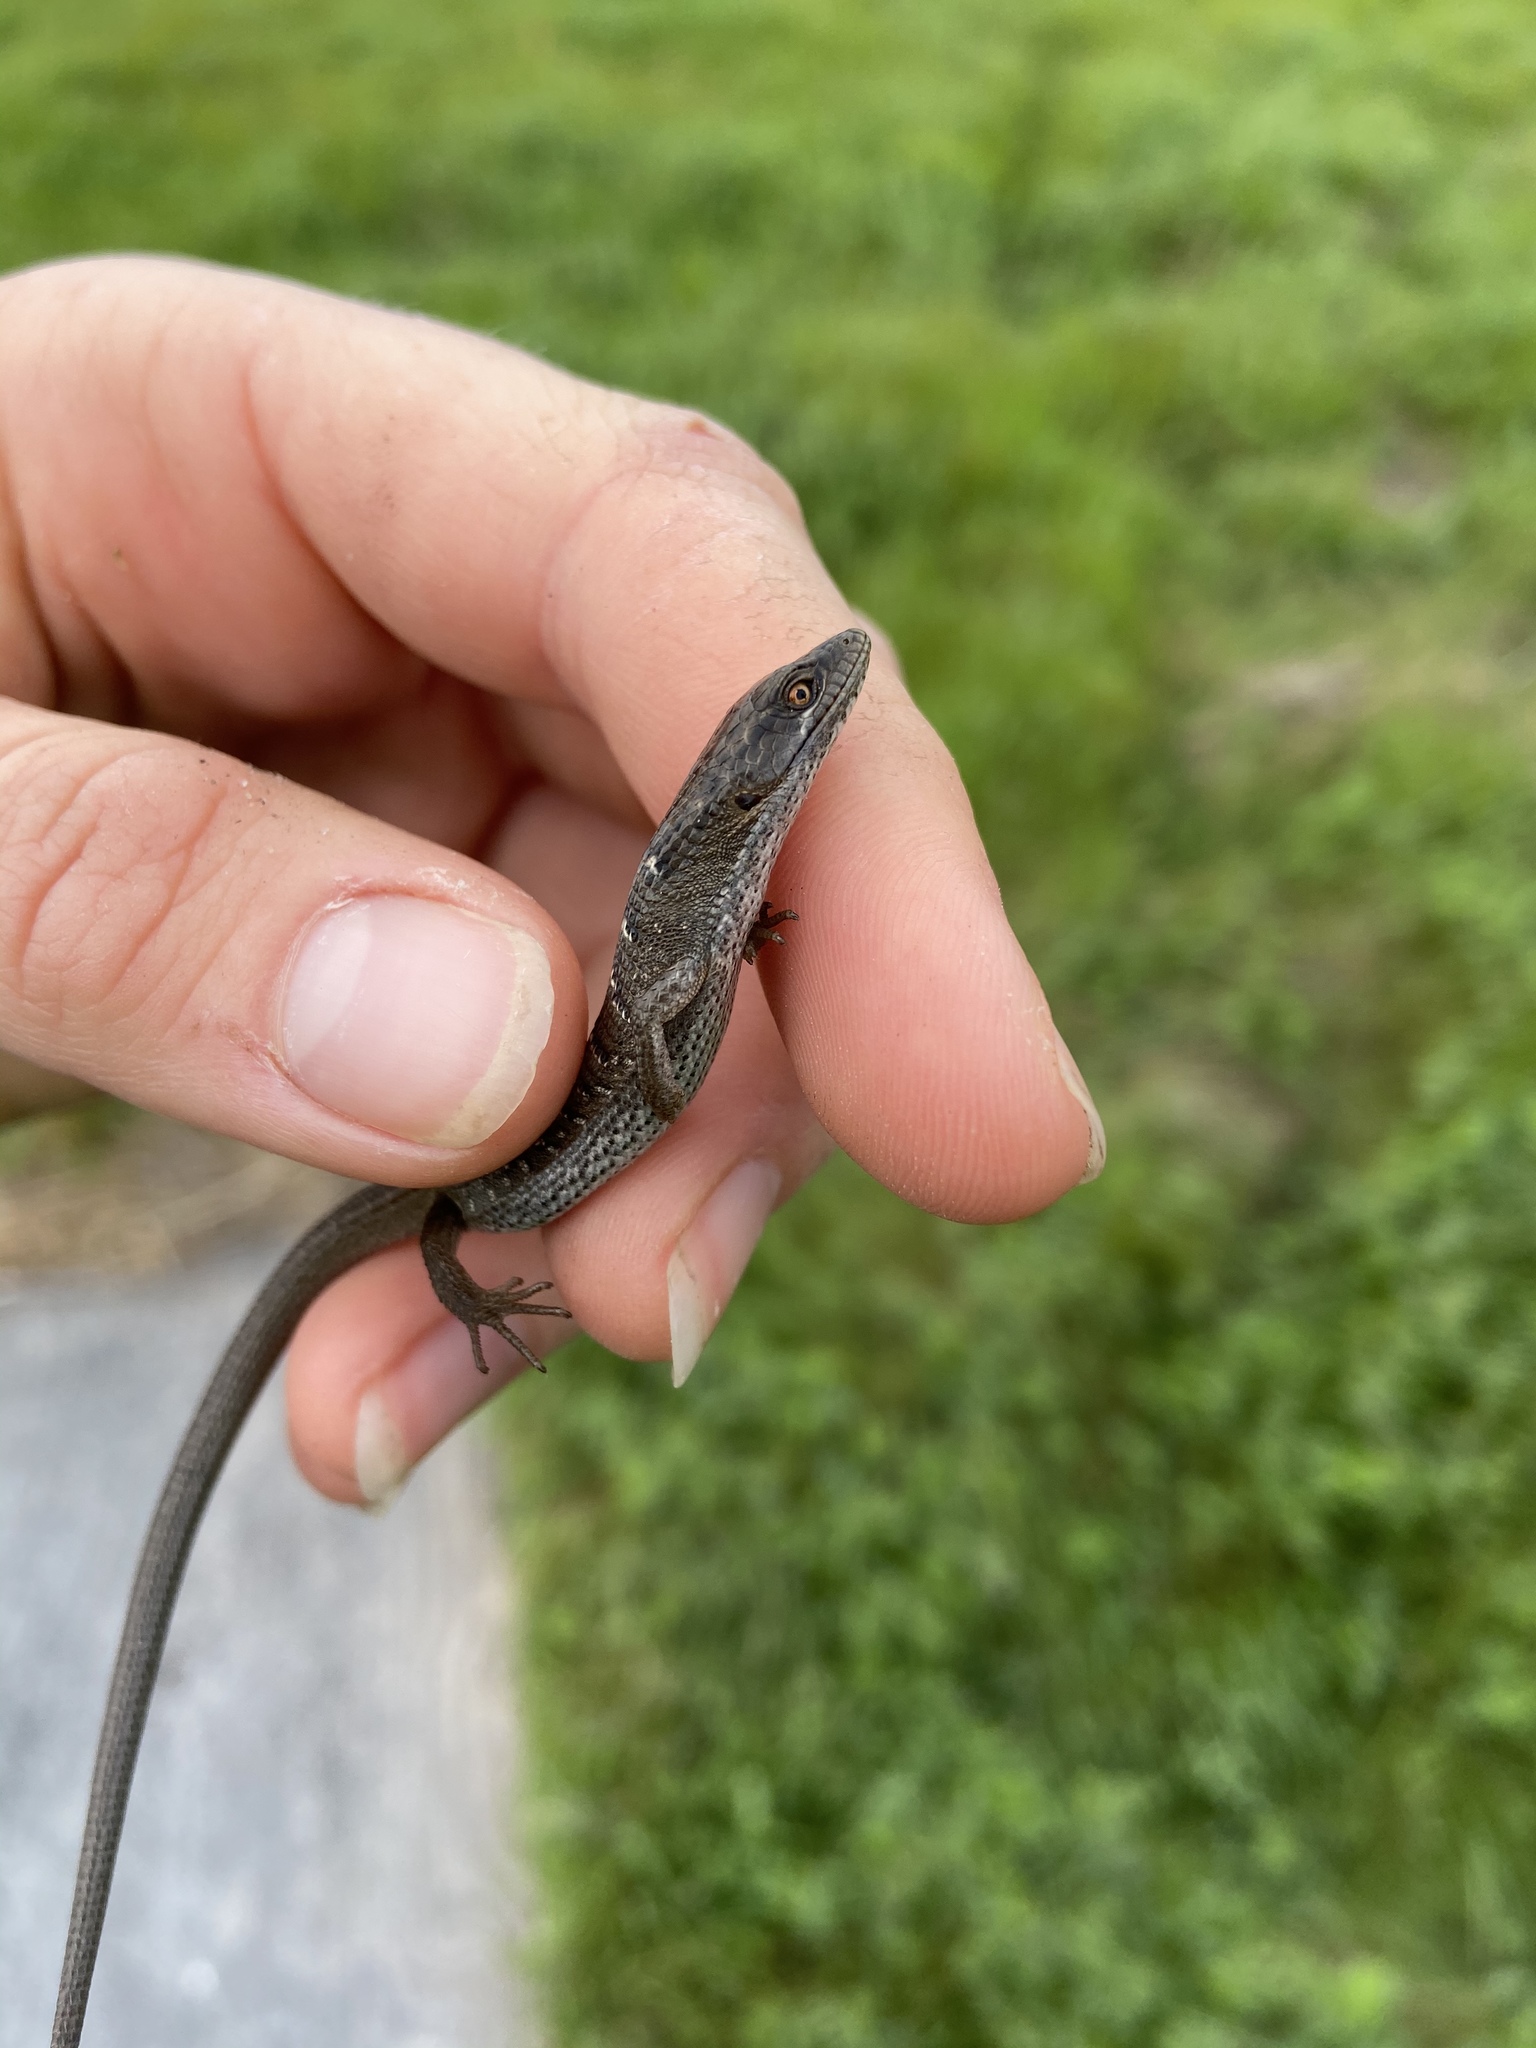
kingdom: Animalia
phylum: Chordata
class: Squamata
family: Anguidae
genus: Elgaria
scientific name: Elgaria multicarinata
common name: Southern alligator lizard
